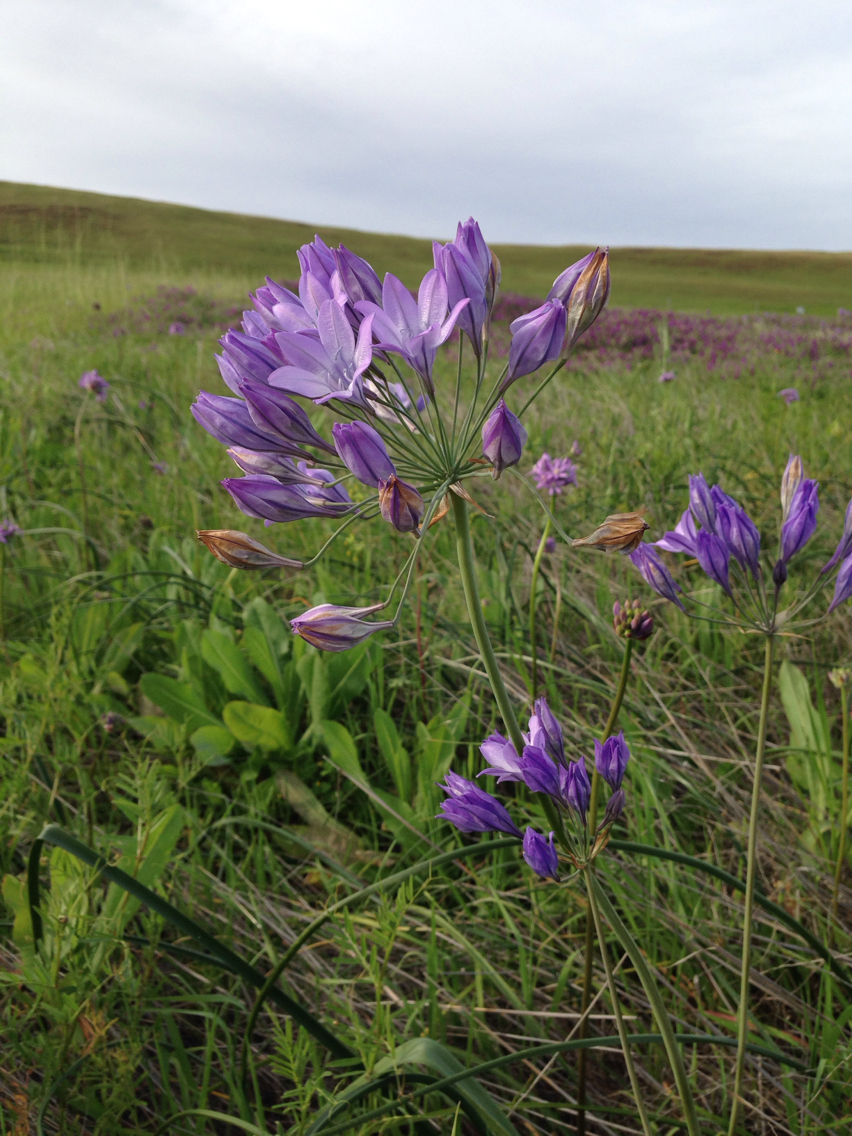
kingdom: Plantae
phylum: Tracheophyta
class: Liliopsida
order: Asparagales
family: Asparagaceae
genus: Triteleia
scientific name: Triteleia laxa
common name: Triplet-lily
